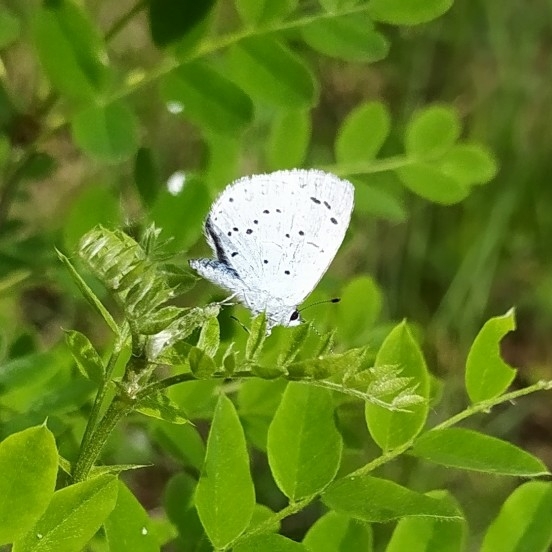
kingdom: Animalia
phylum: Arthropoda
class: Insecta
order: Lepidoptera
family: Lycaenidae
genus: Celastrina
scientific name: Celastrina argiolus
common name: Holly blue
